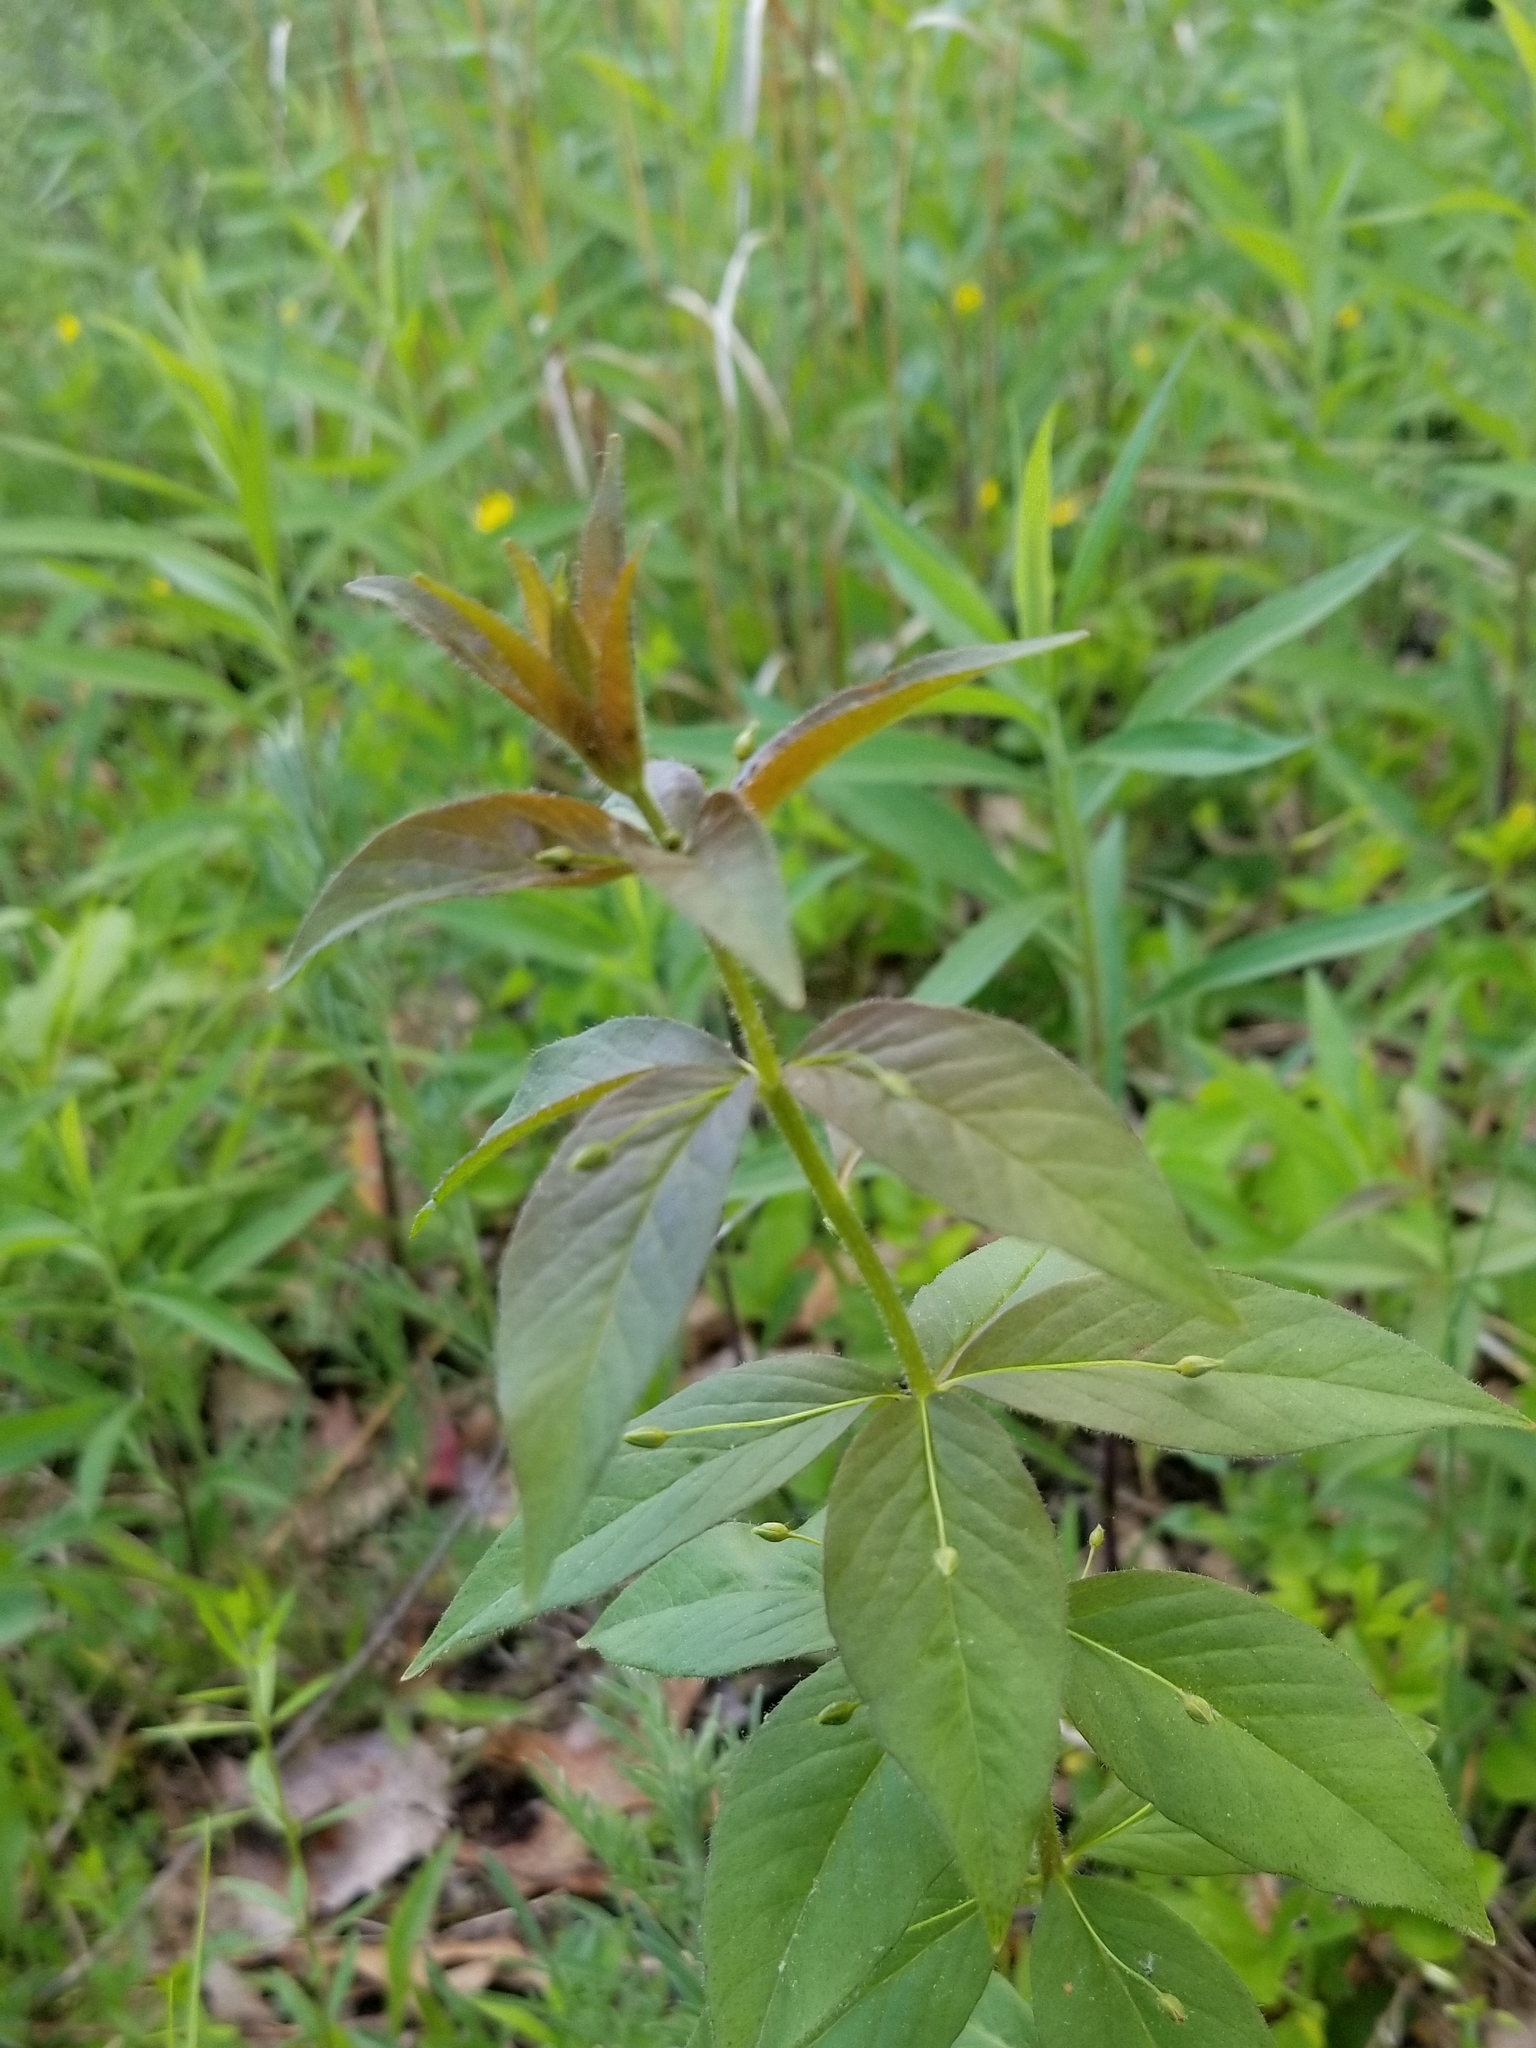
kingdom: Plantae
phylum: Tracheophyta
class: Magnoliopsida
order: Ericales
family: Primulaceae
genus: Lysimachia
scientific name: Lysimachia quadrifolia
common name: Whorled loosestrife
